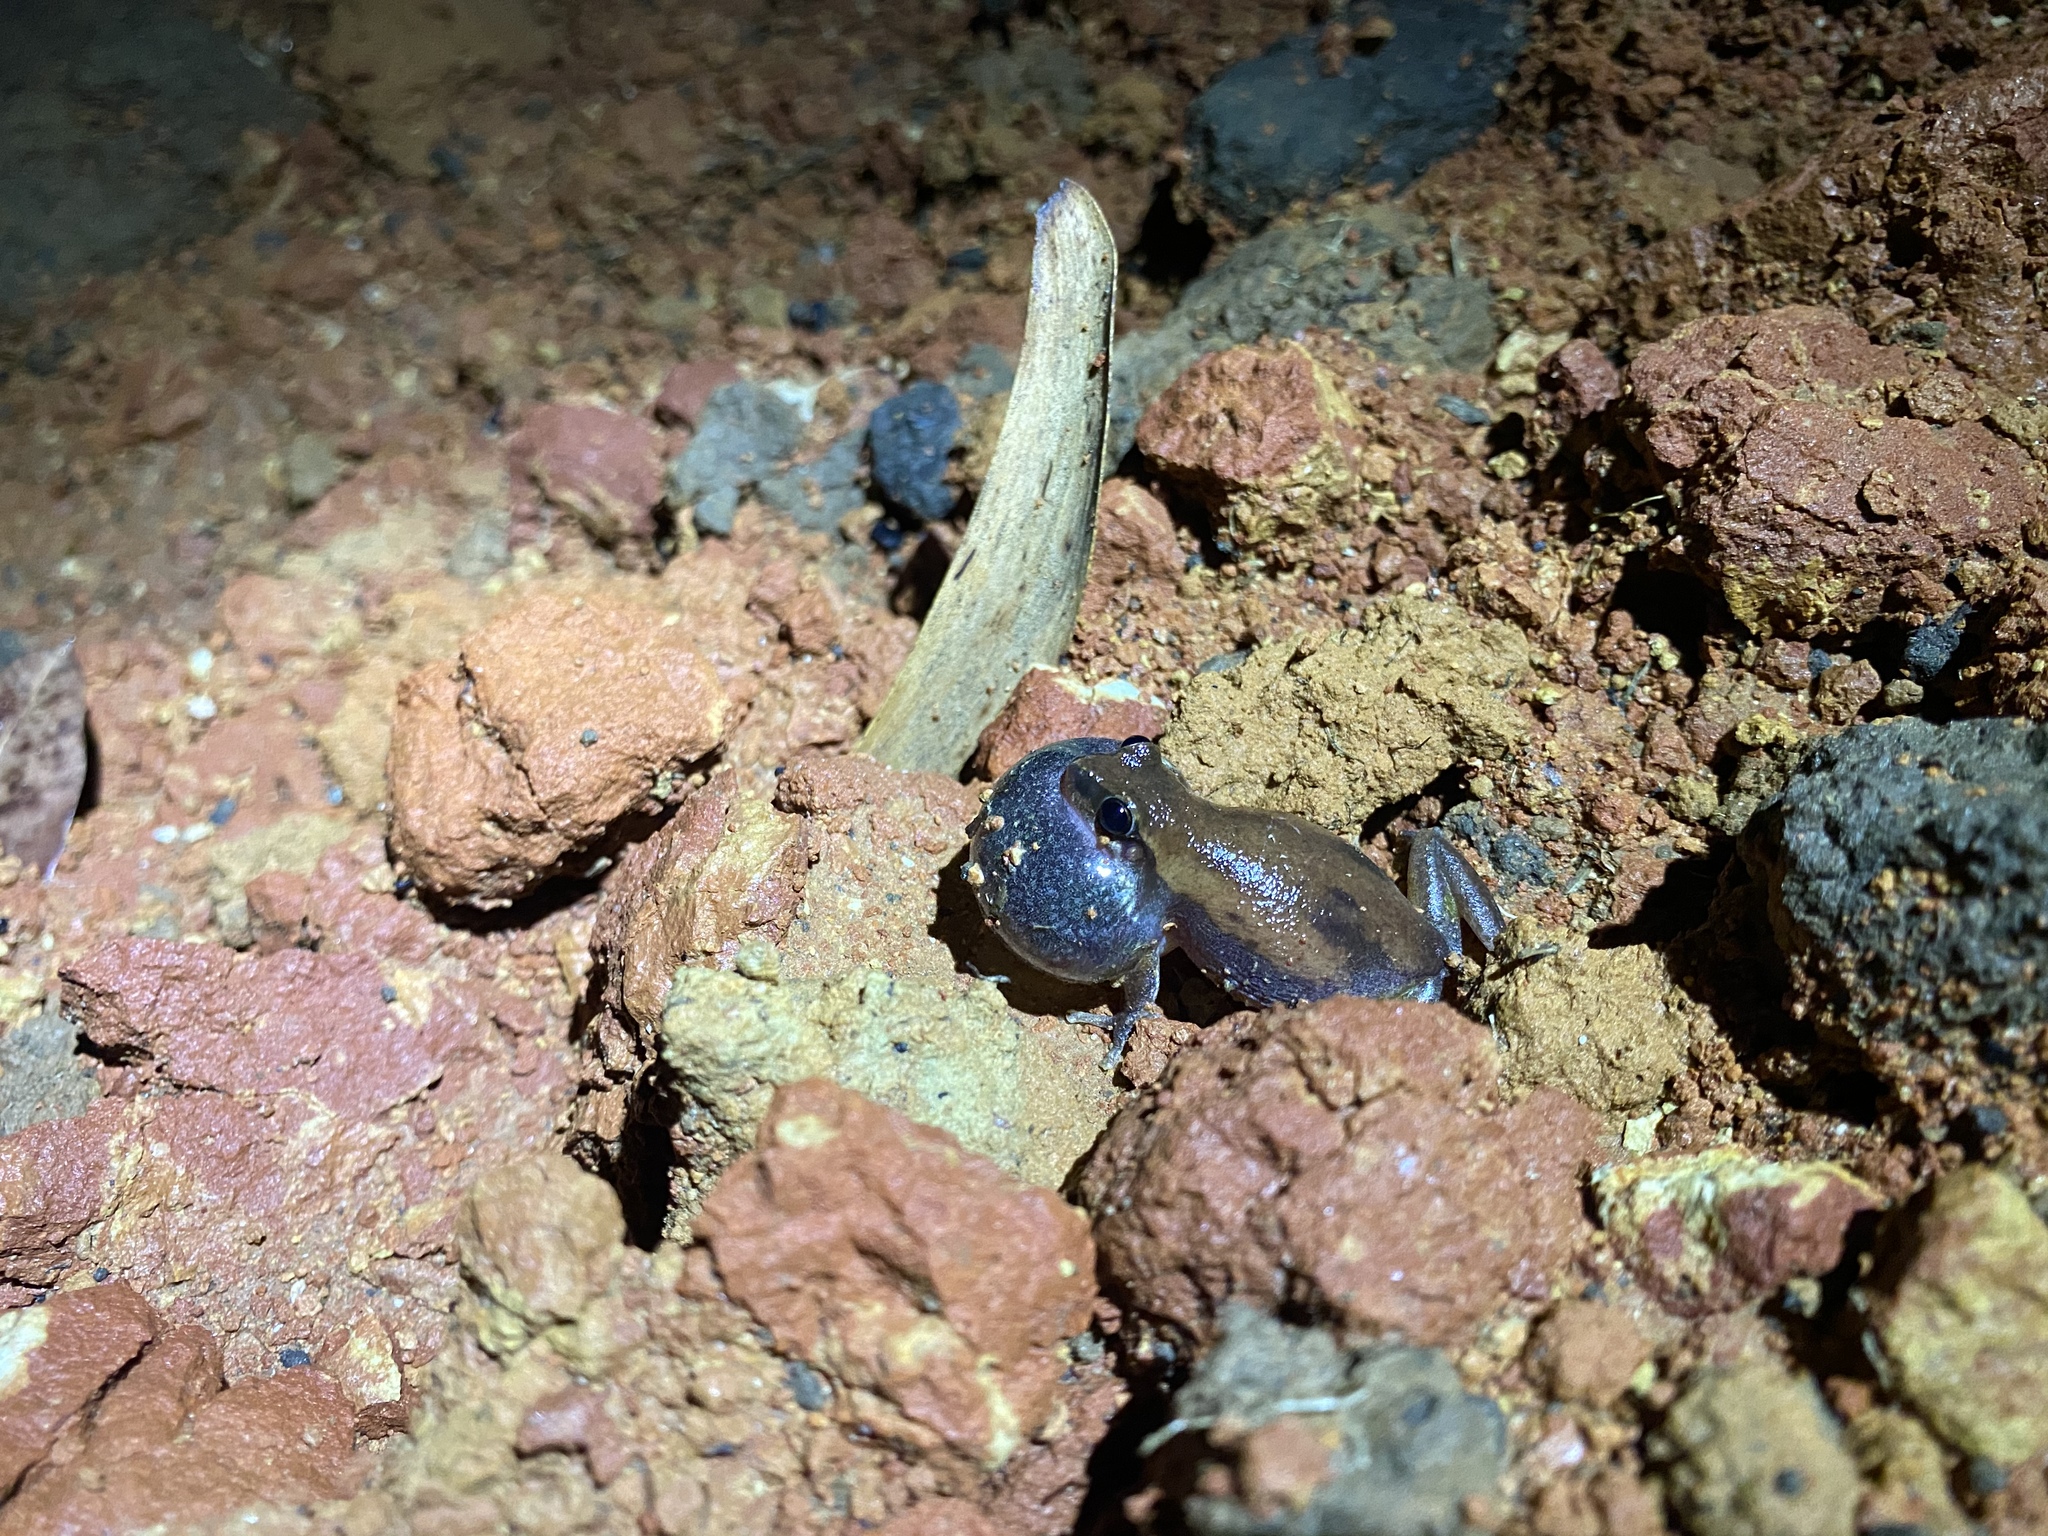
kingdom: Animalia
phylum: Chordata
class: Amphibia
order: Anura
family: Pelodryadidae
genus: Litoria
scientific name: Litoria rubella
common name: Desert tree frog
